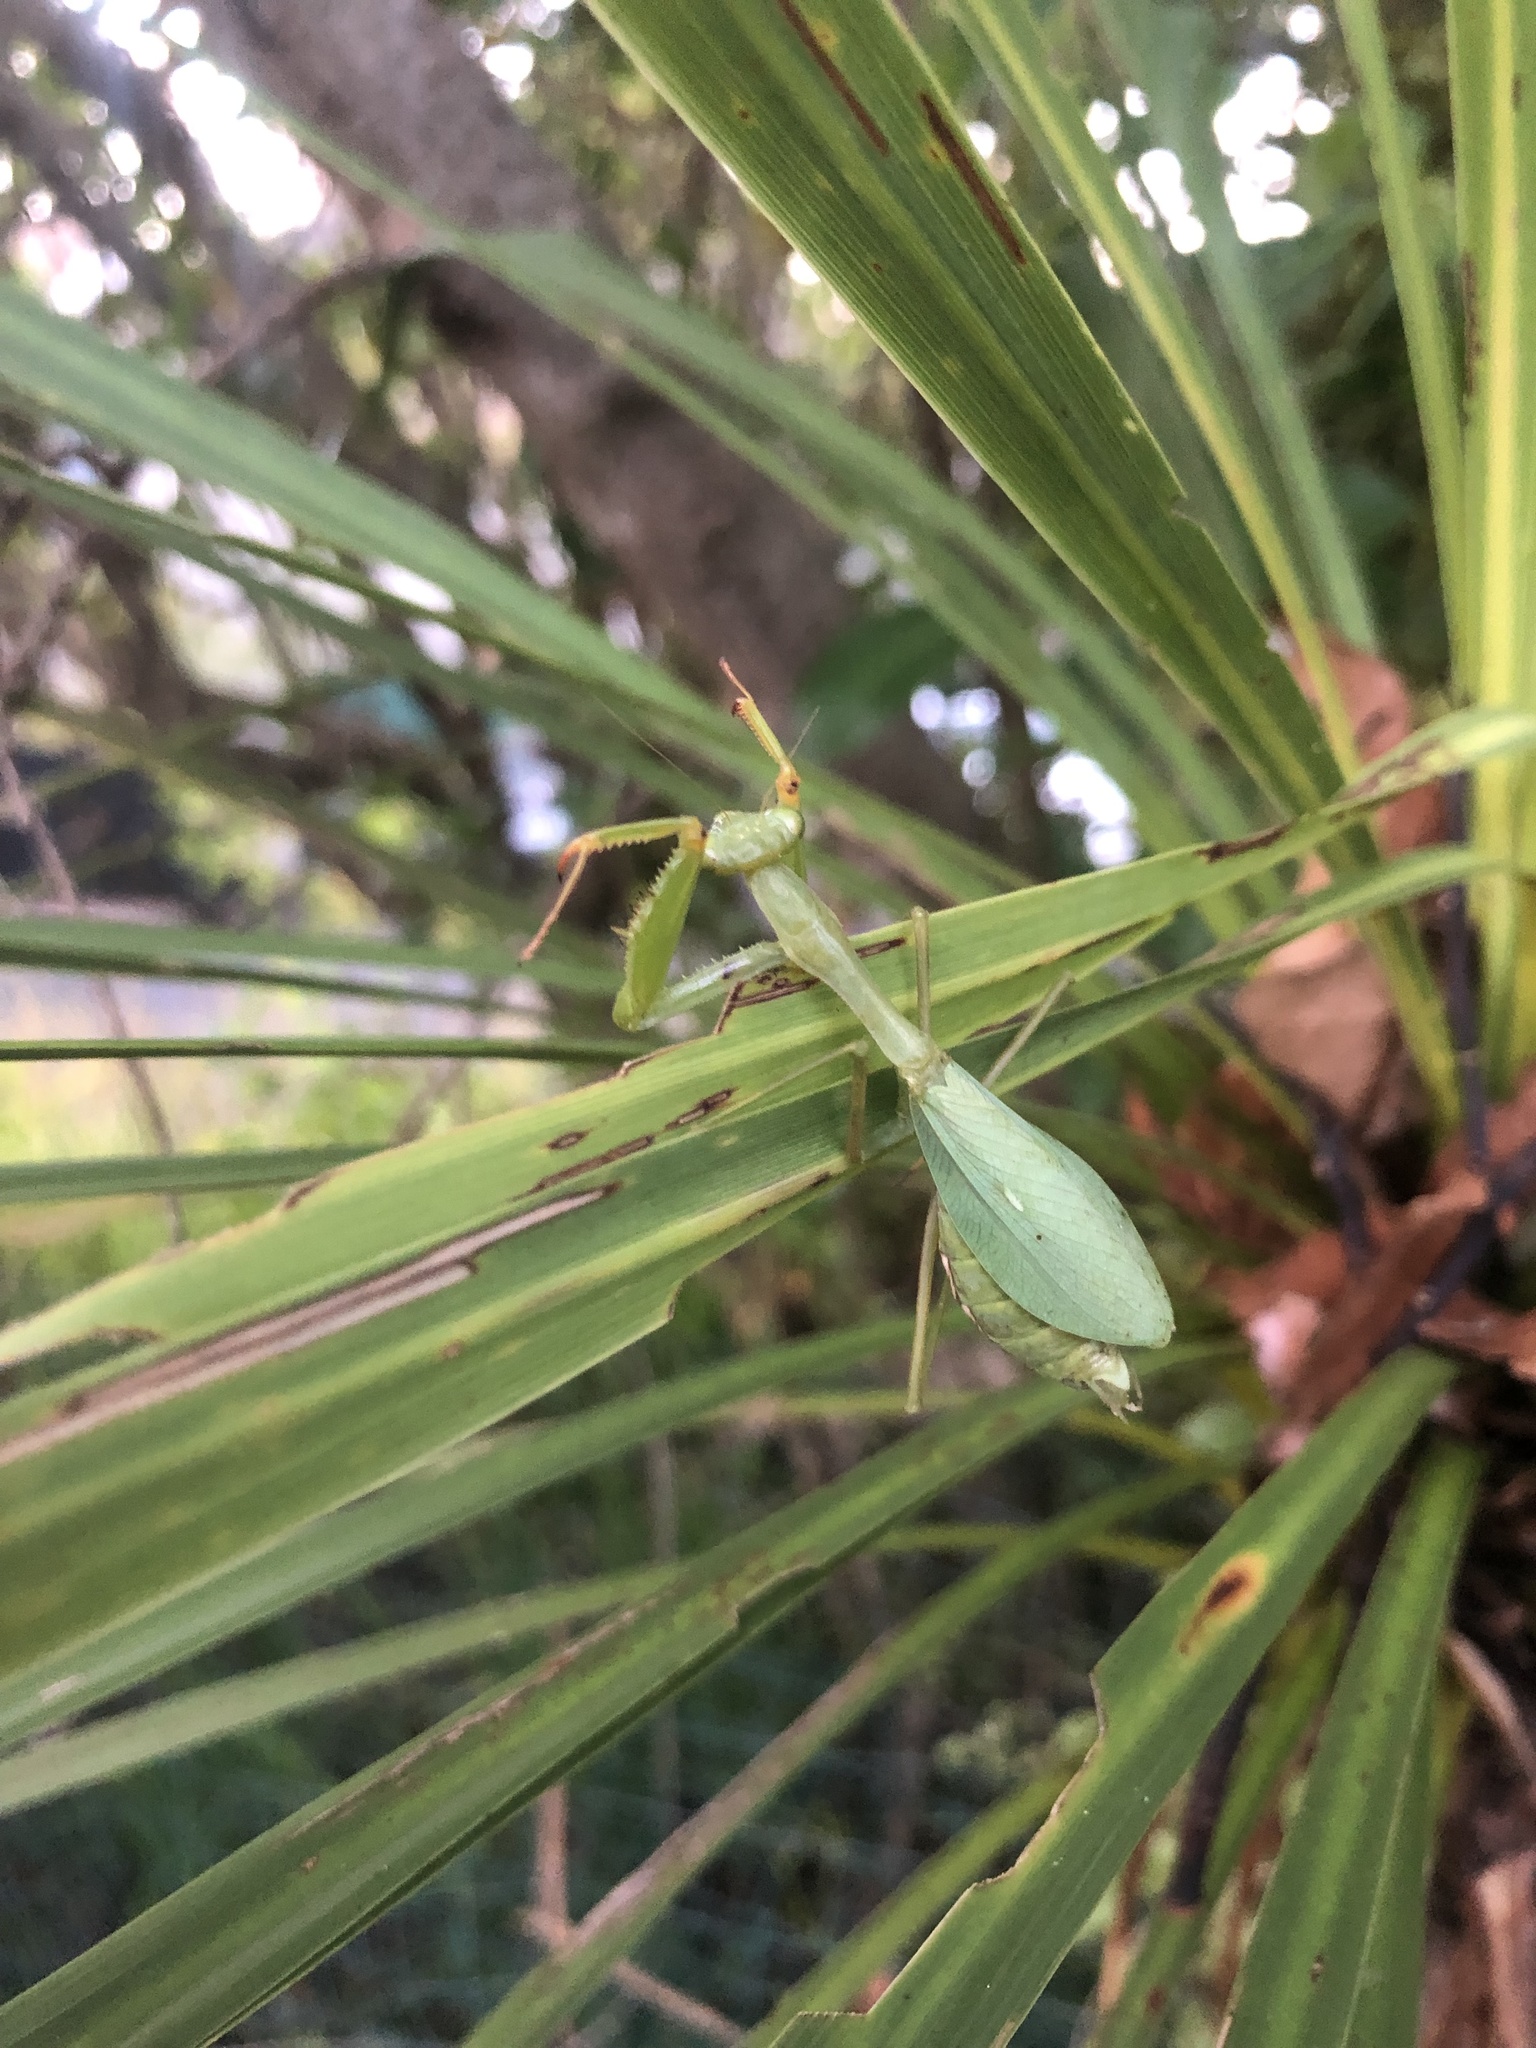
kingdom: Animalia
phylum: Arthropoda
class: Insecta
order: Mantodea
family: Miomantidae
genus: Miomantis
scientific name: Miomantis caffra
